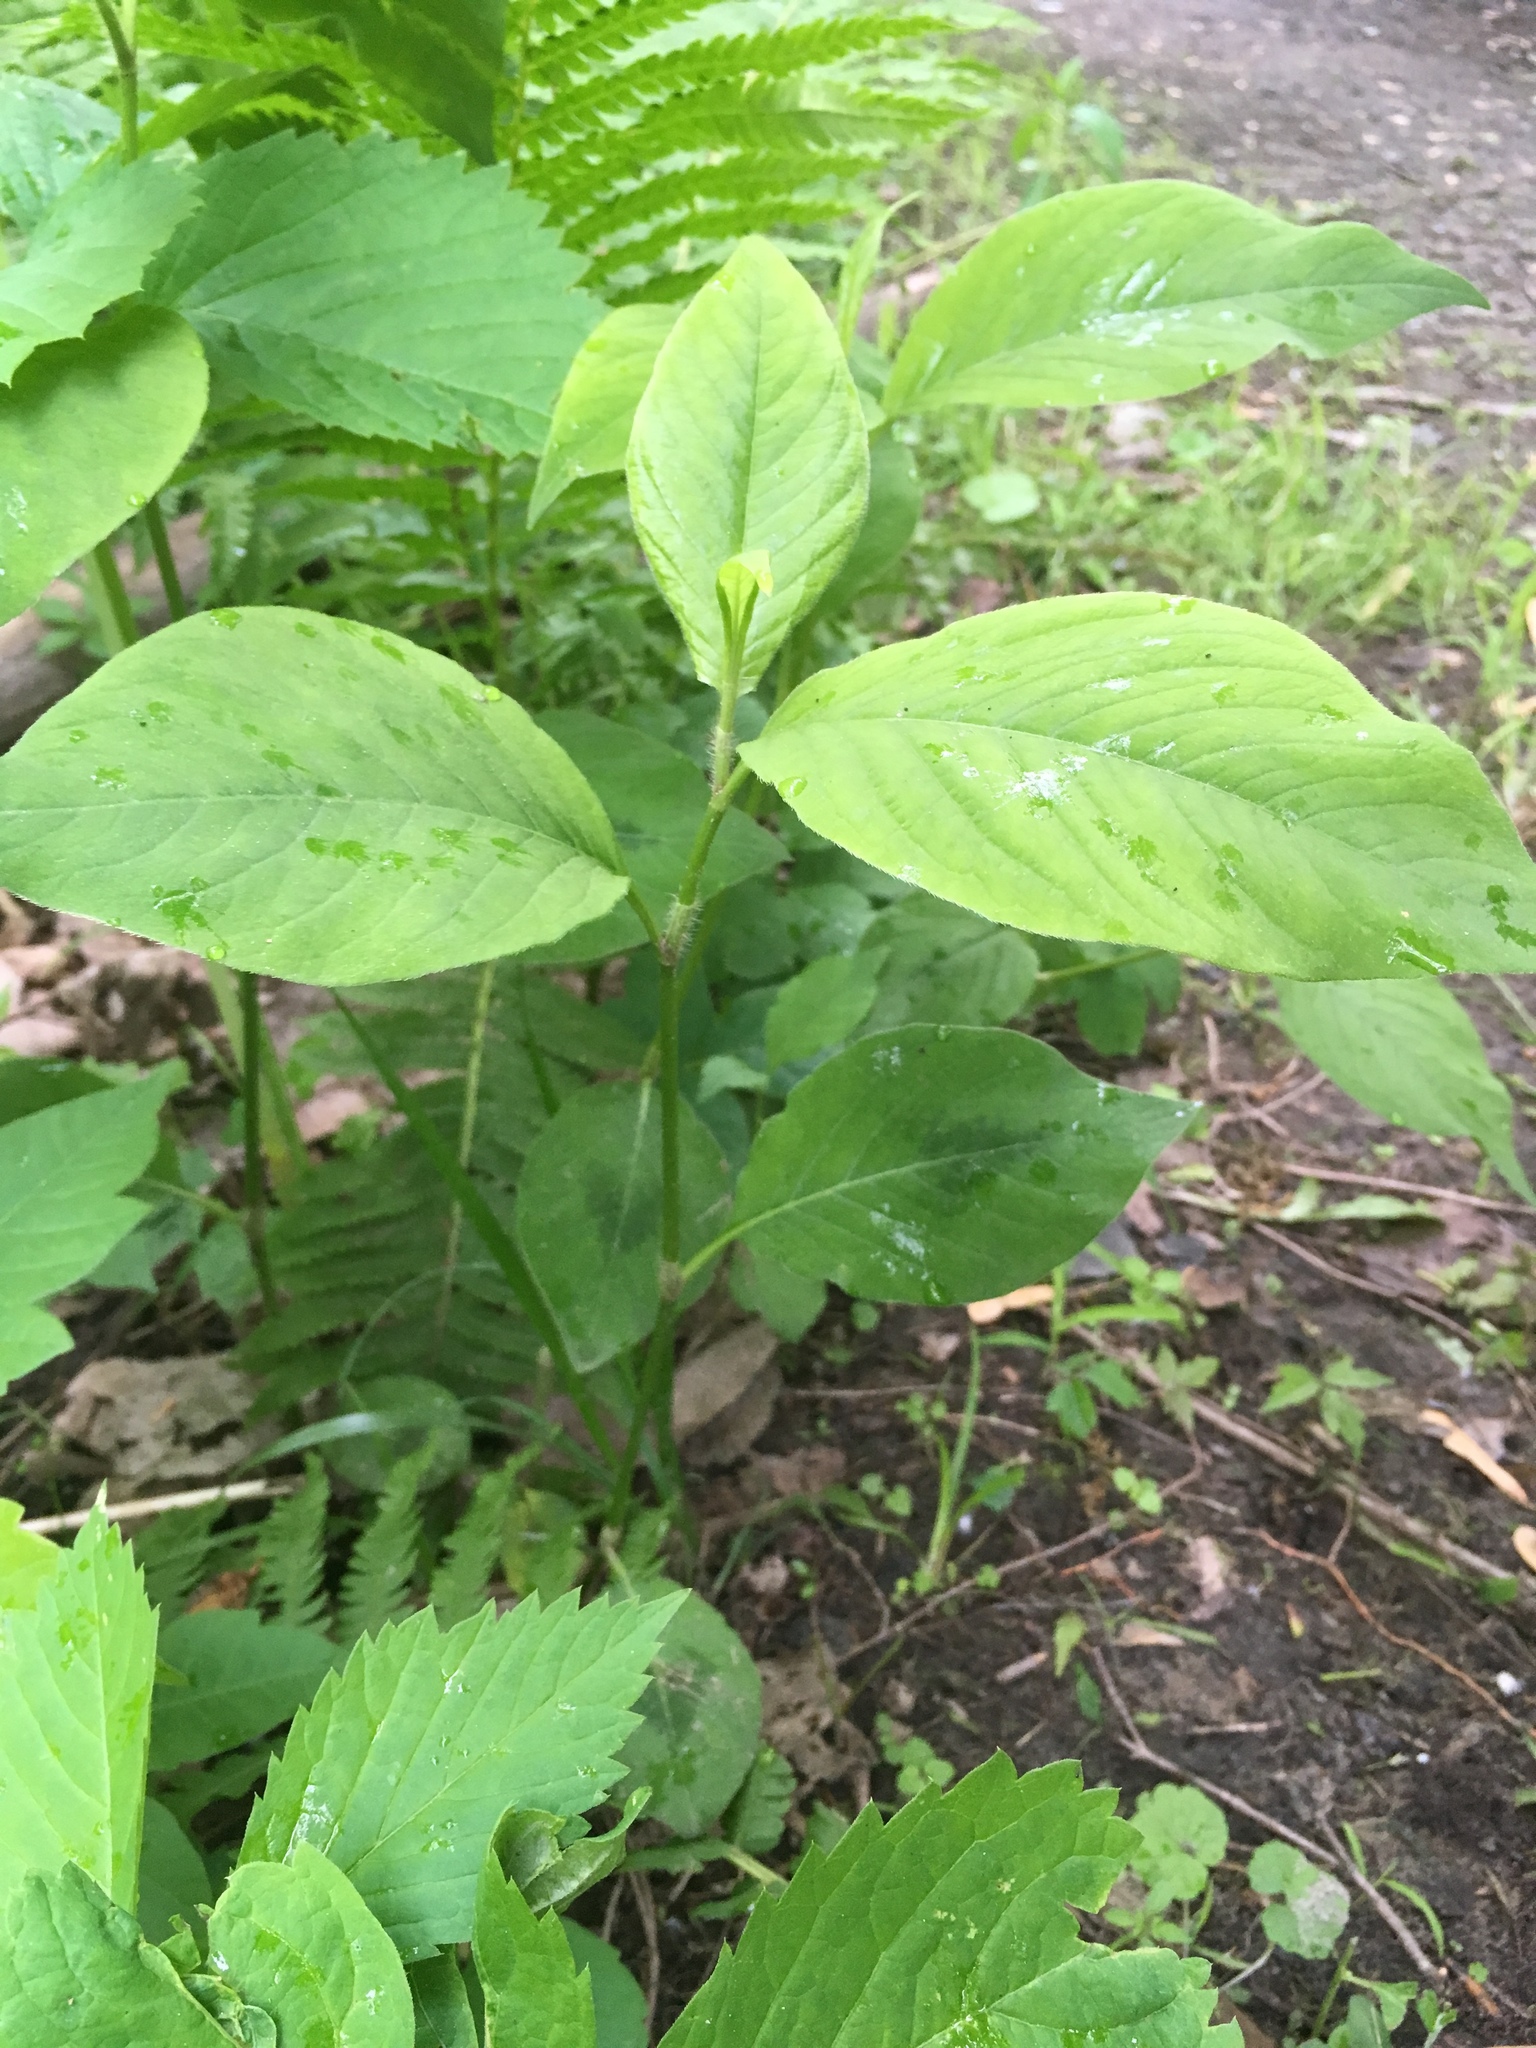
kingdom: Plantae
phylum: Tracheophyta
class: Magnoliopsida
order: Caryophyllales
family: Polygonaceae
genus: Persicaria
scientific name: Persicaria virginiana
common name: Jumpseed
